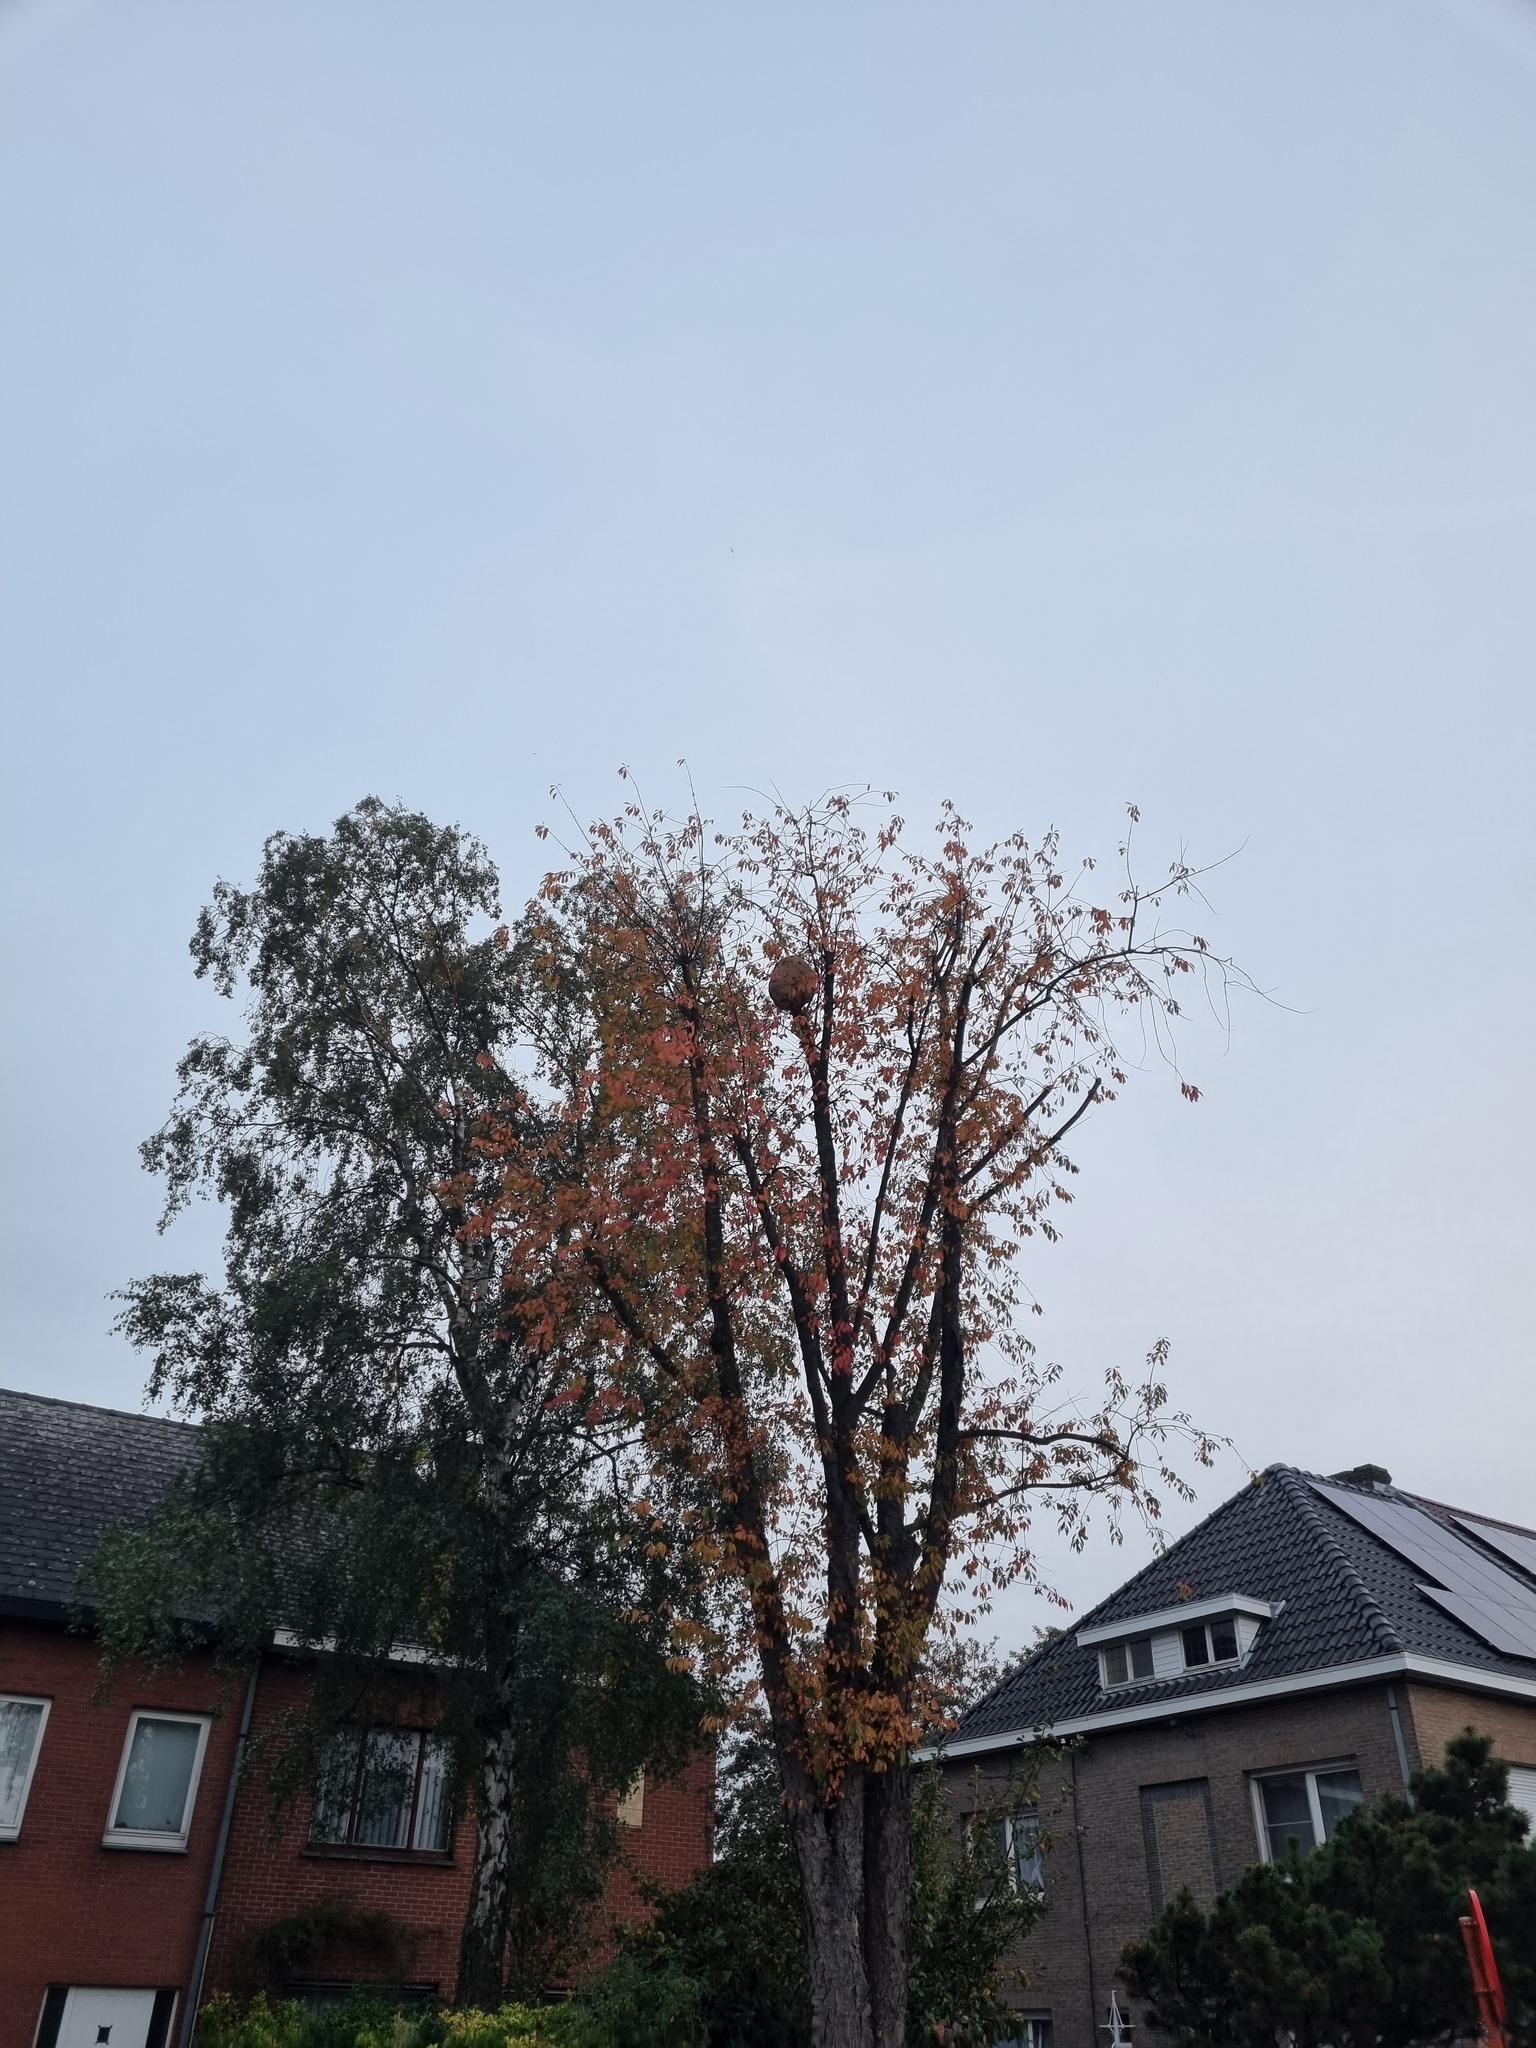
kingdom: Animalia
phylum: Arthropoda
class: Insecta
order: Hymenoptera
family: Vespidae
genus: Vespa
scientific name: Vespa velutina
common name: Asian hornet
